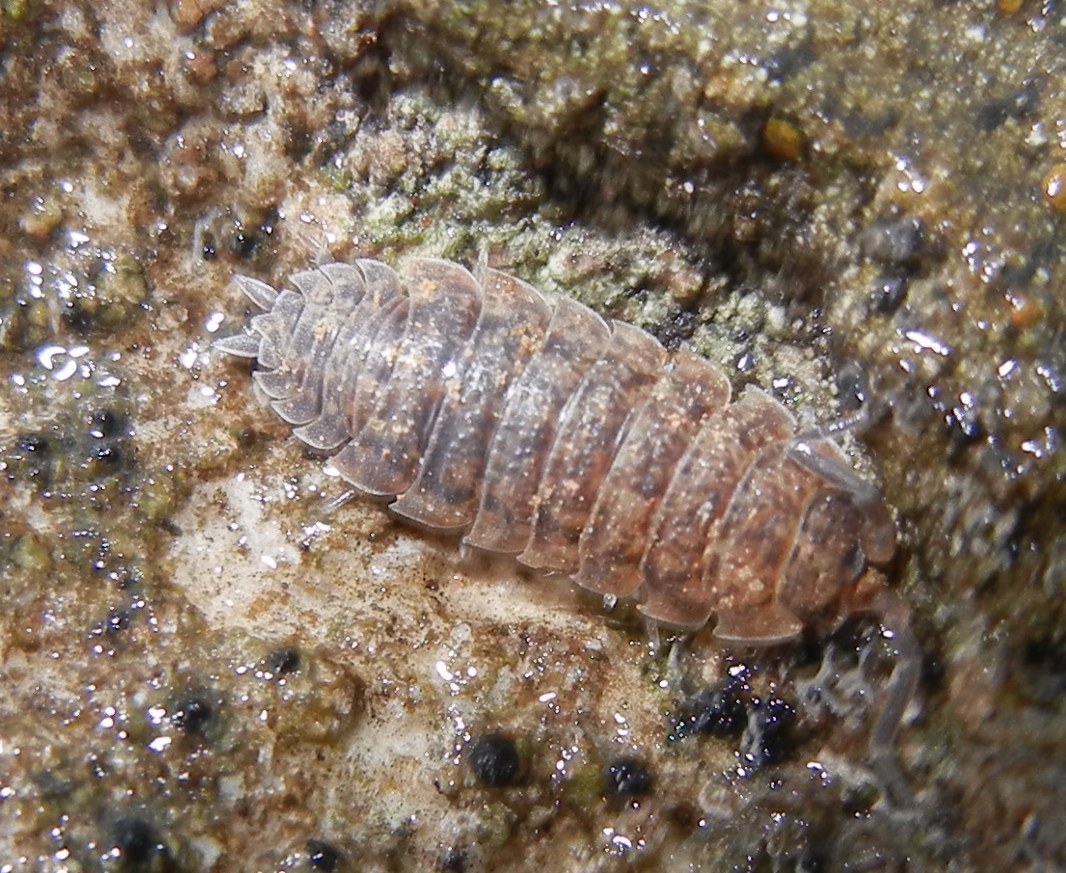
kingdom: Animalia
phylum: Arthropoda
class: Malacostraca
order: Isopoda
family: Porcellionidae
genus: Porcellio
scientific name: Porcellio scaber
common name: Common rough woodlouse
